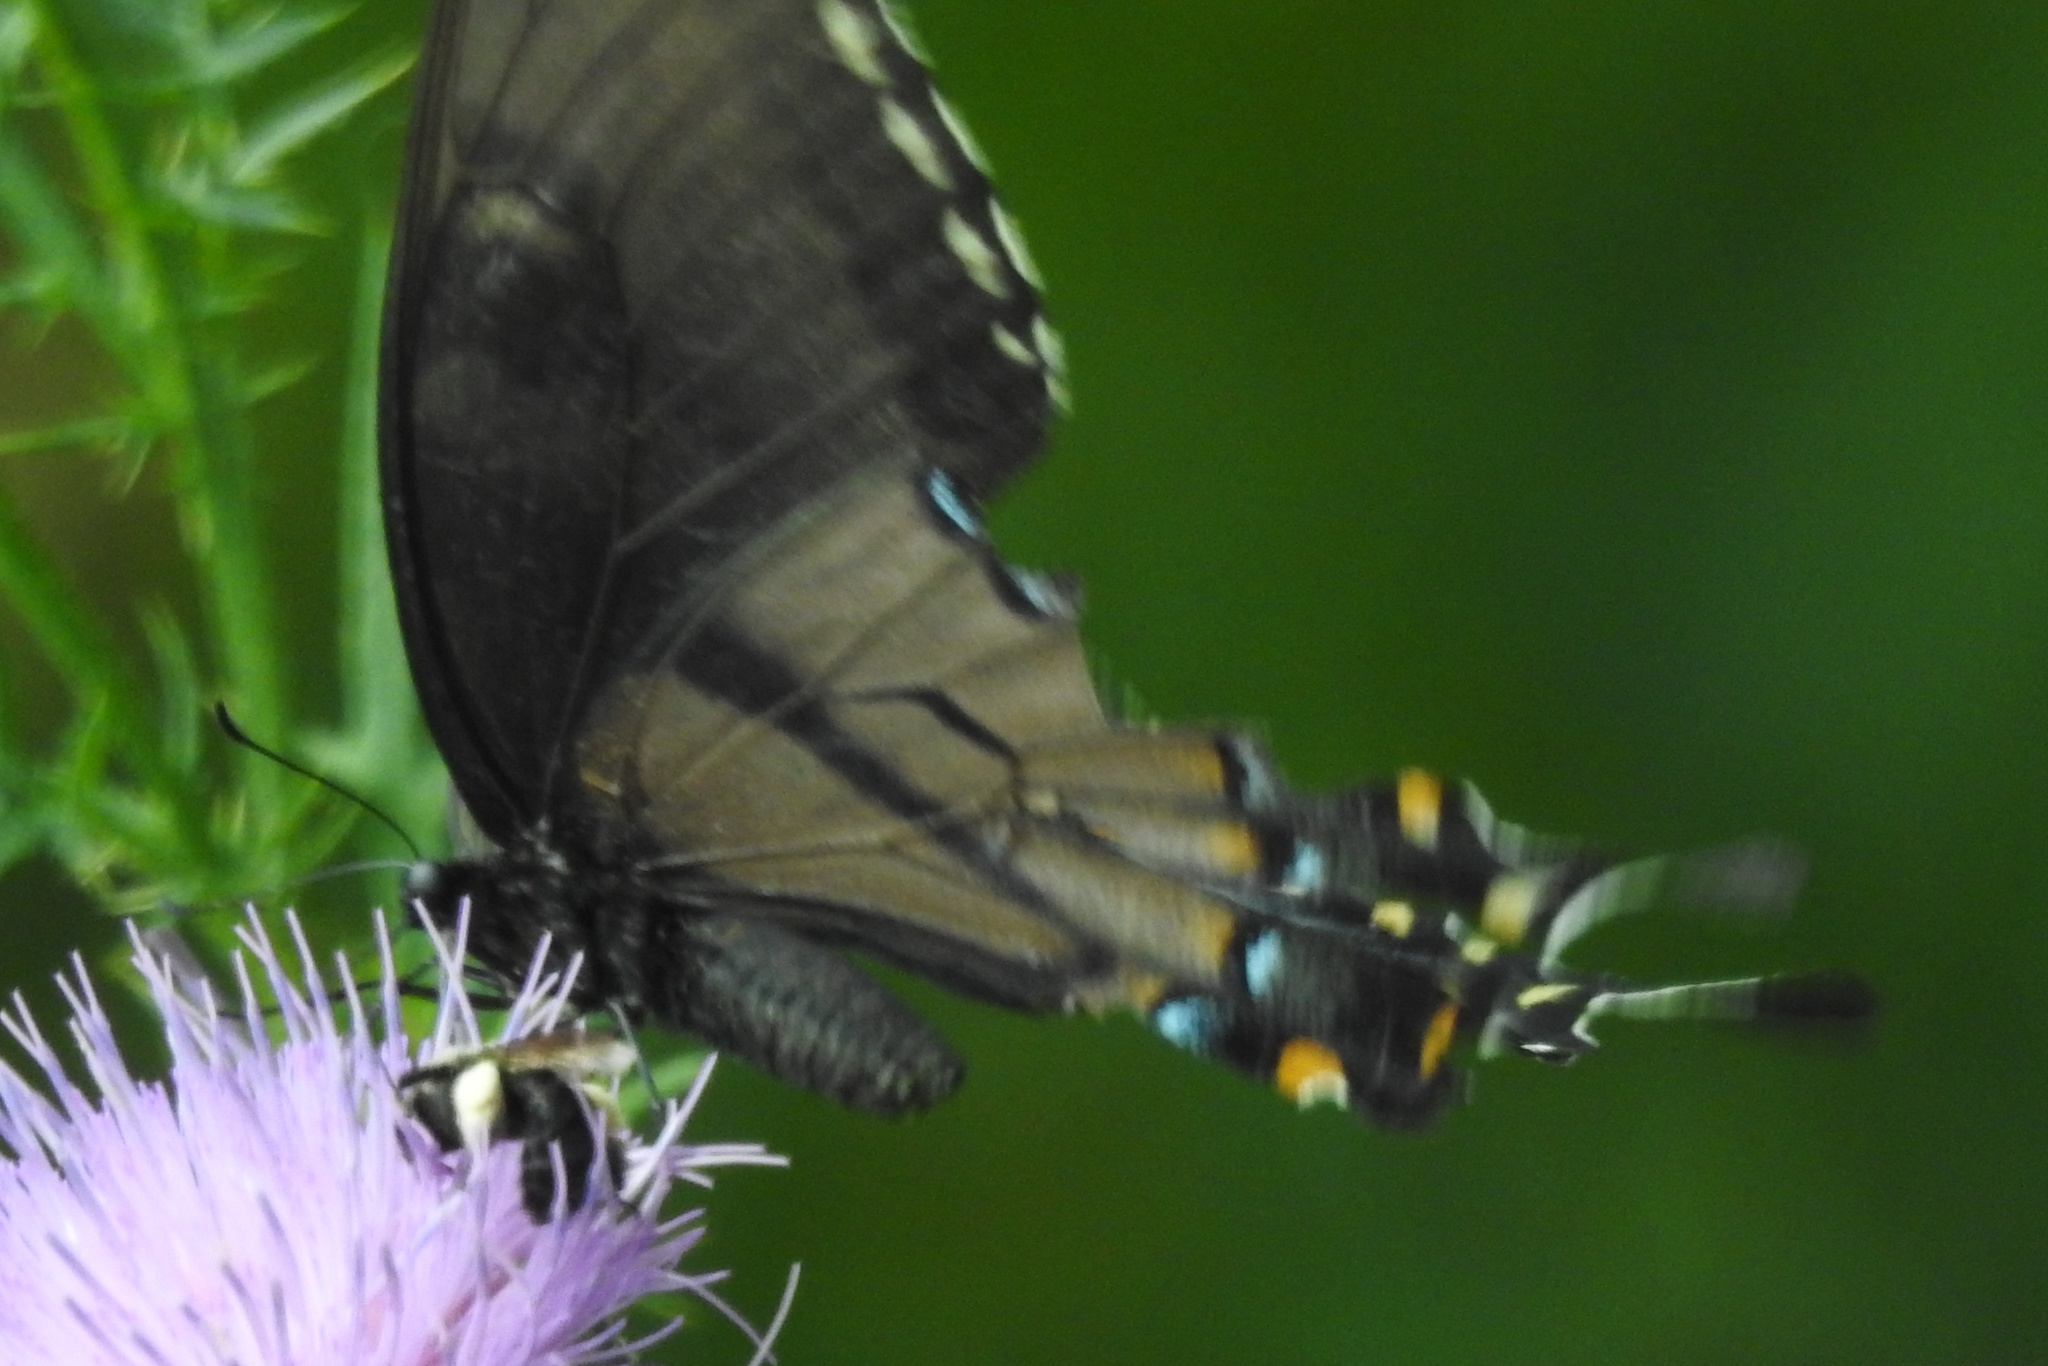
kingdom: Animalia
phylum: Arthropoda
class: Insecta
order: Lepidoptera
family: Papilionidae
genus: Papilio
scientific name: Papilio glaucus
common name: Tiger swallowtail
